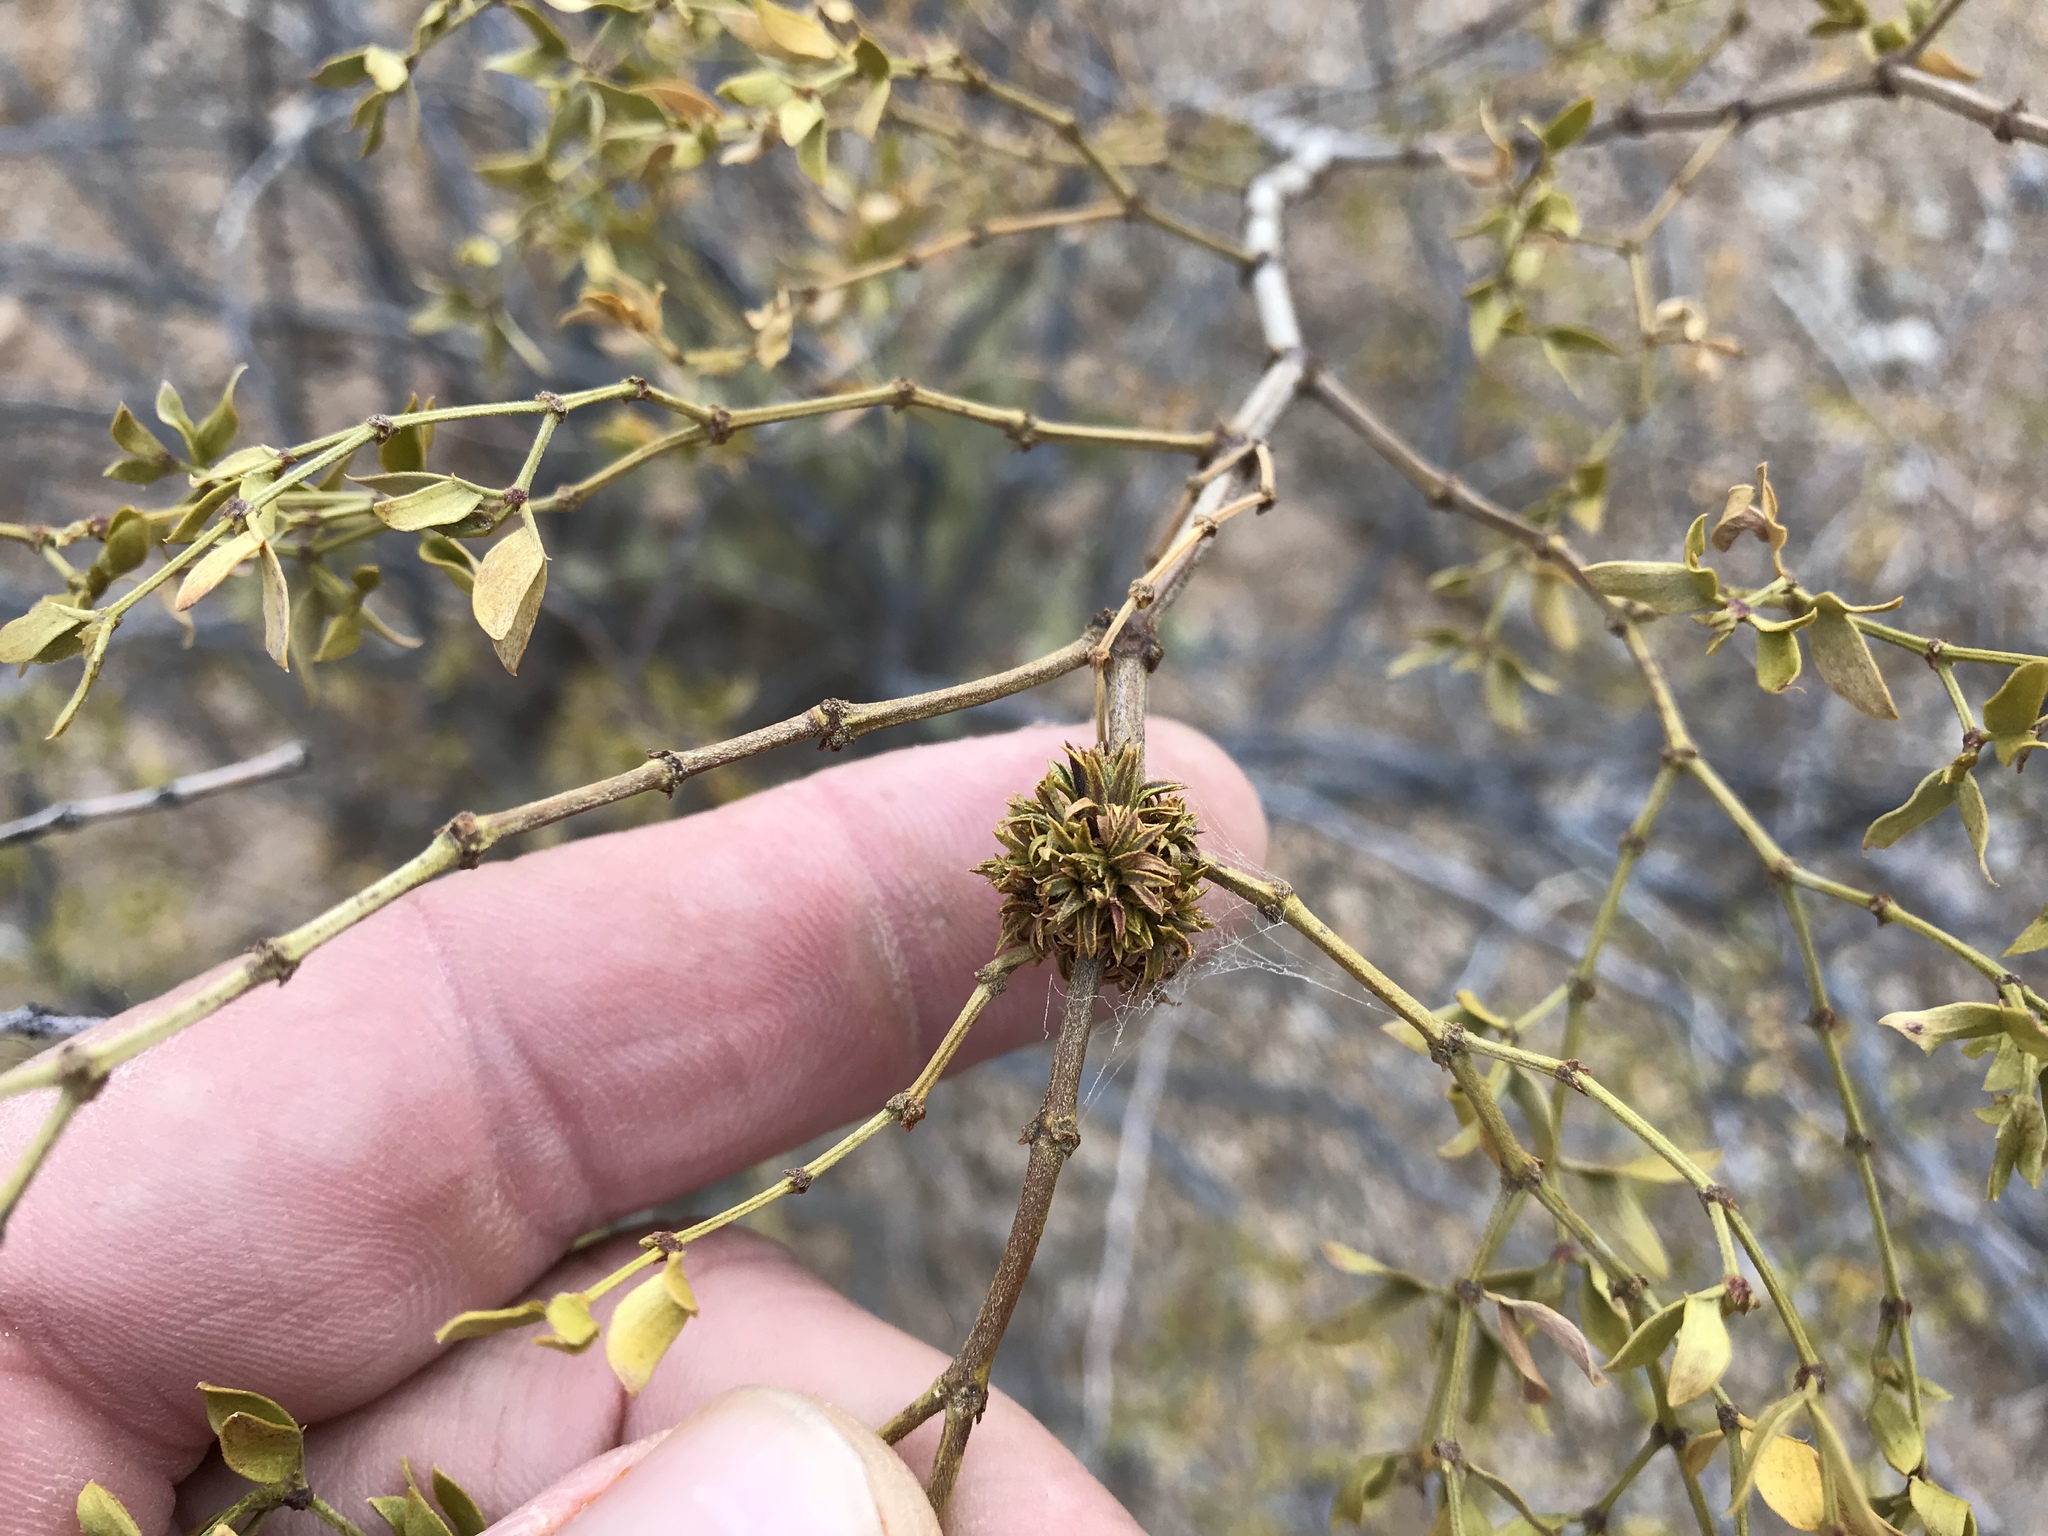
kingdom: Animalia
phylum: Arthropoda
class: Insecta
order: Diptera
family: Cecidomyiidae
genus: Asphondylia
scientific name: Asphondylia auripila
